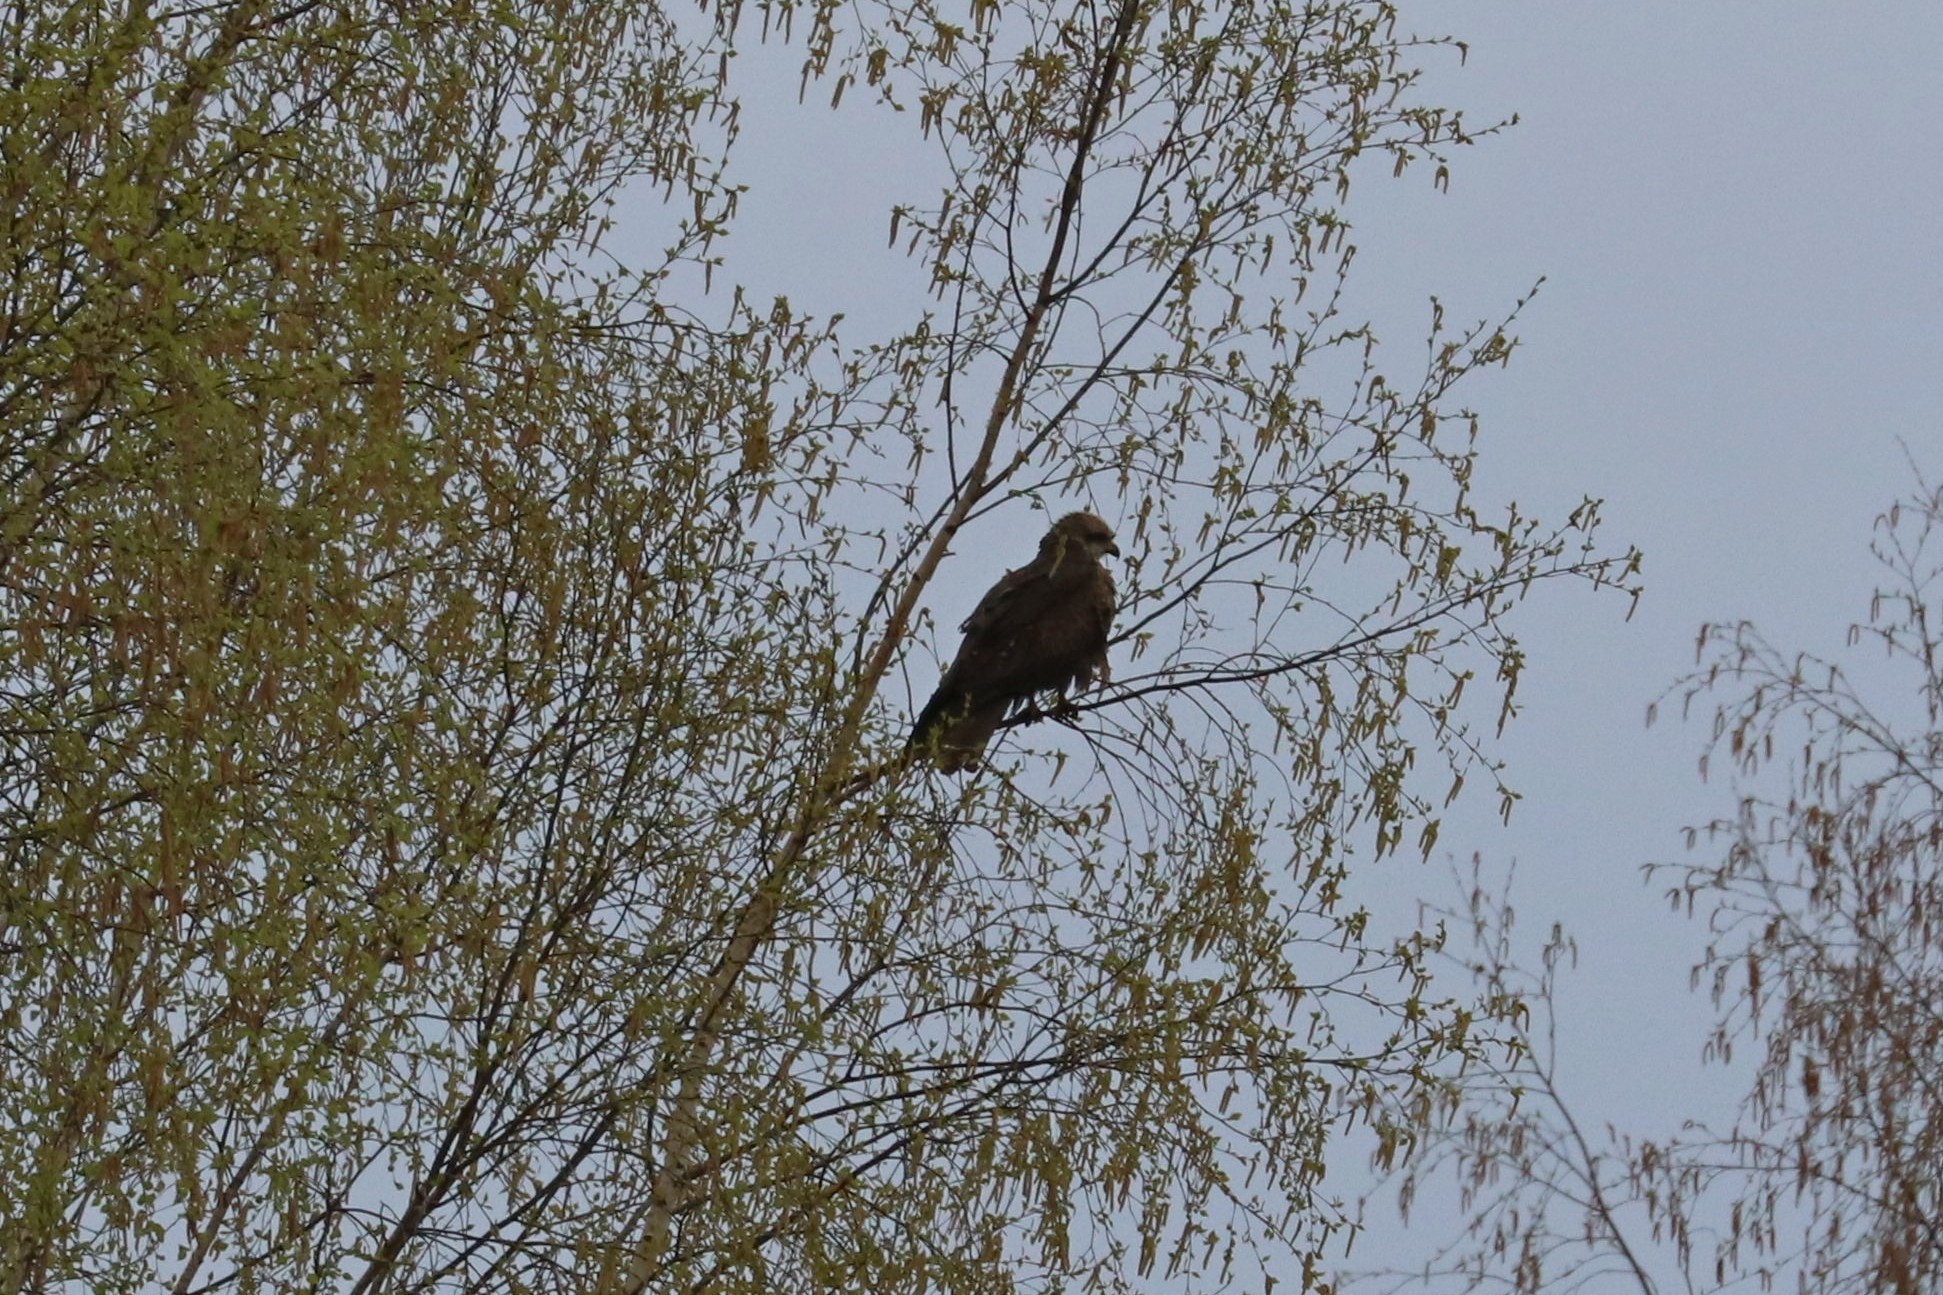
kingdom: Animalia
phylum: Chordata
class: Aves
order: Accipitriformes
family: Accipitridae
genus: Milvus
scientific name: Milvus migrans
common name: Black kite
